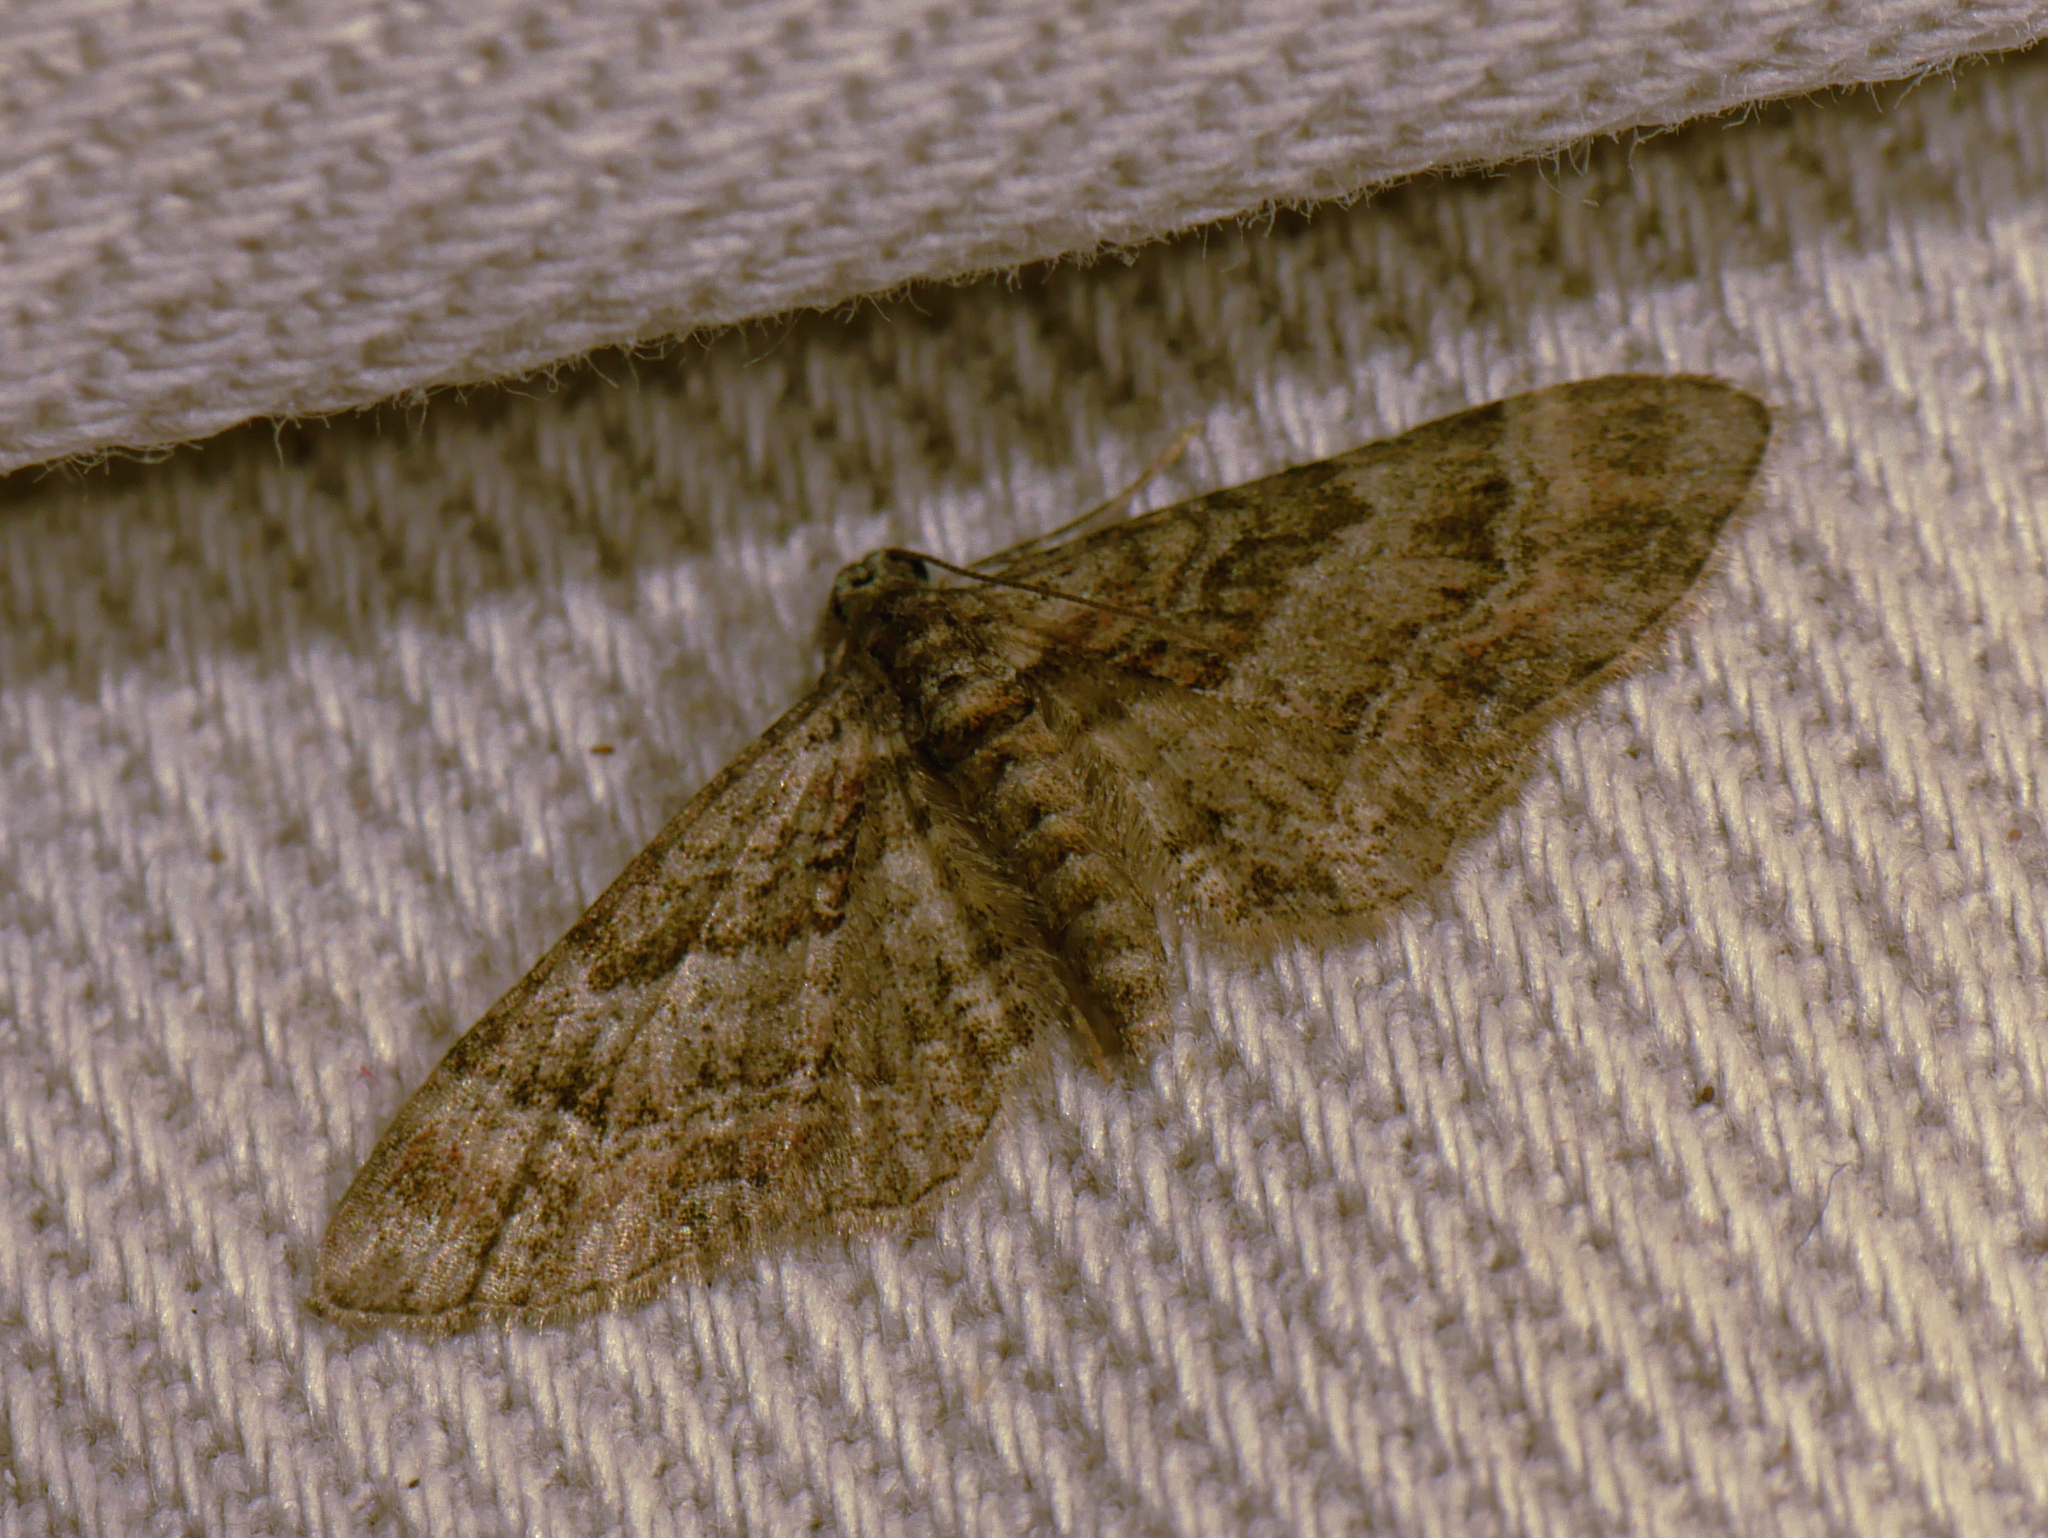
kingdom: Animalia
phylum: Arthropoda
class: Insecta
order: Lepidoptera
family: Geometridae
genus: Gymnoscelis
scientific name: Gymnoscelis rufifasciata
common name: Double-striped pug
